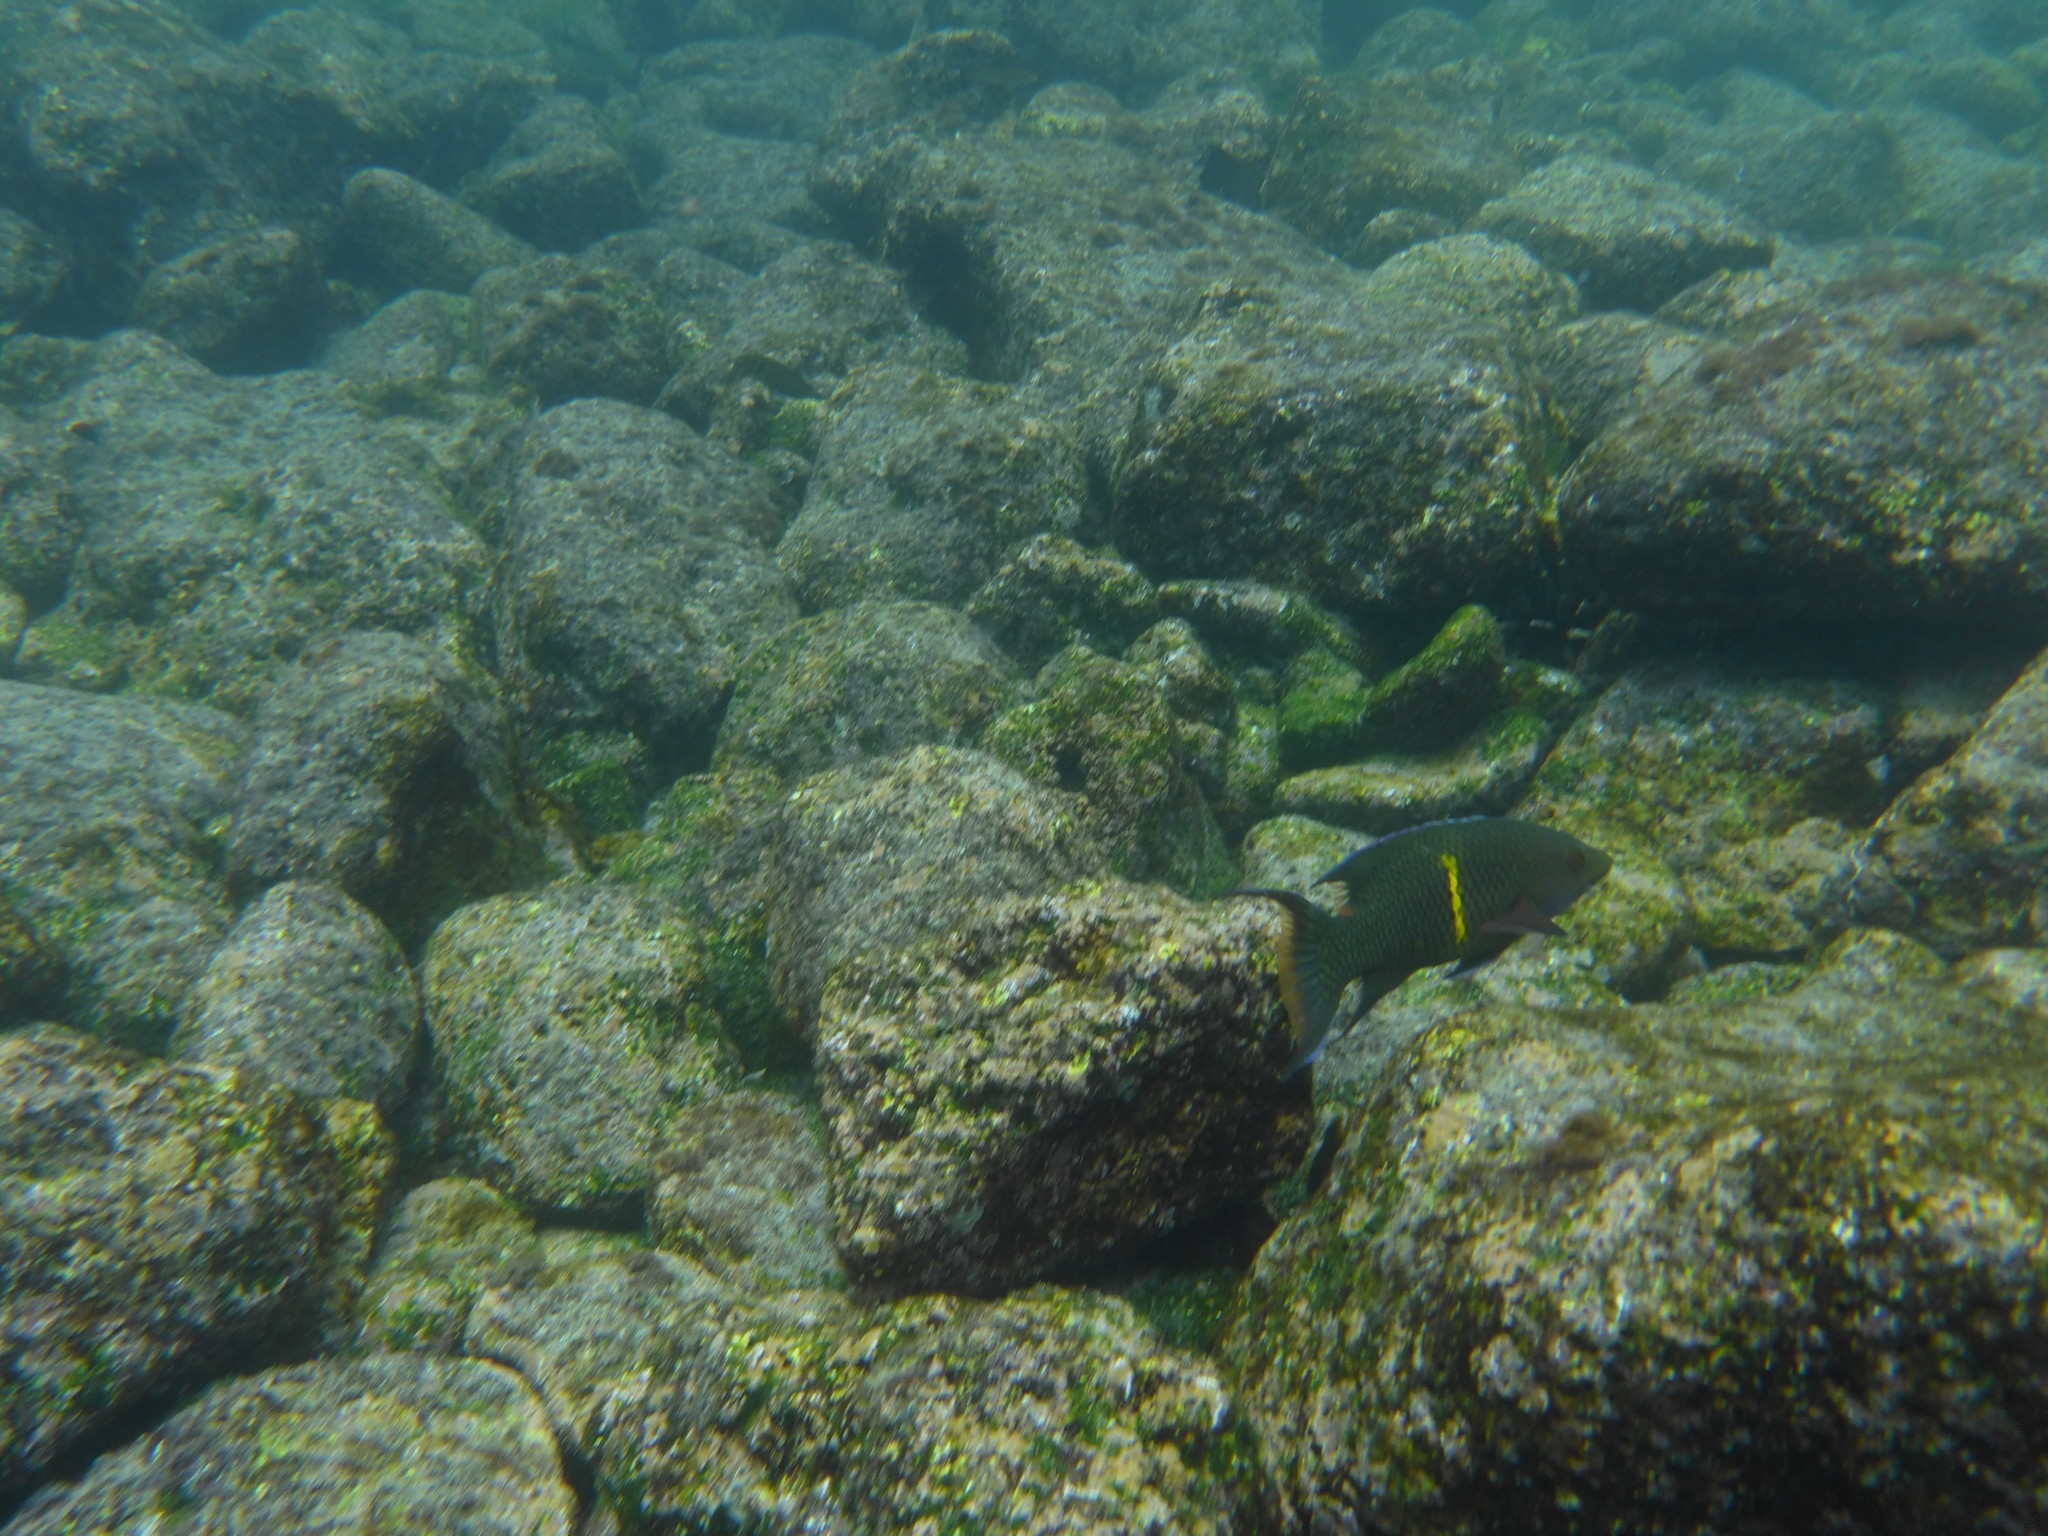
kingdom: Animalia
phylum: Chordata
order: Perciformes
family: Labridae
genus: Bodianus
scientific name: Bodianus diplotaenia
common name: Mexican hogfish
